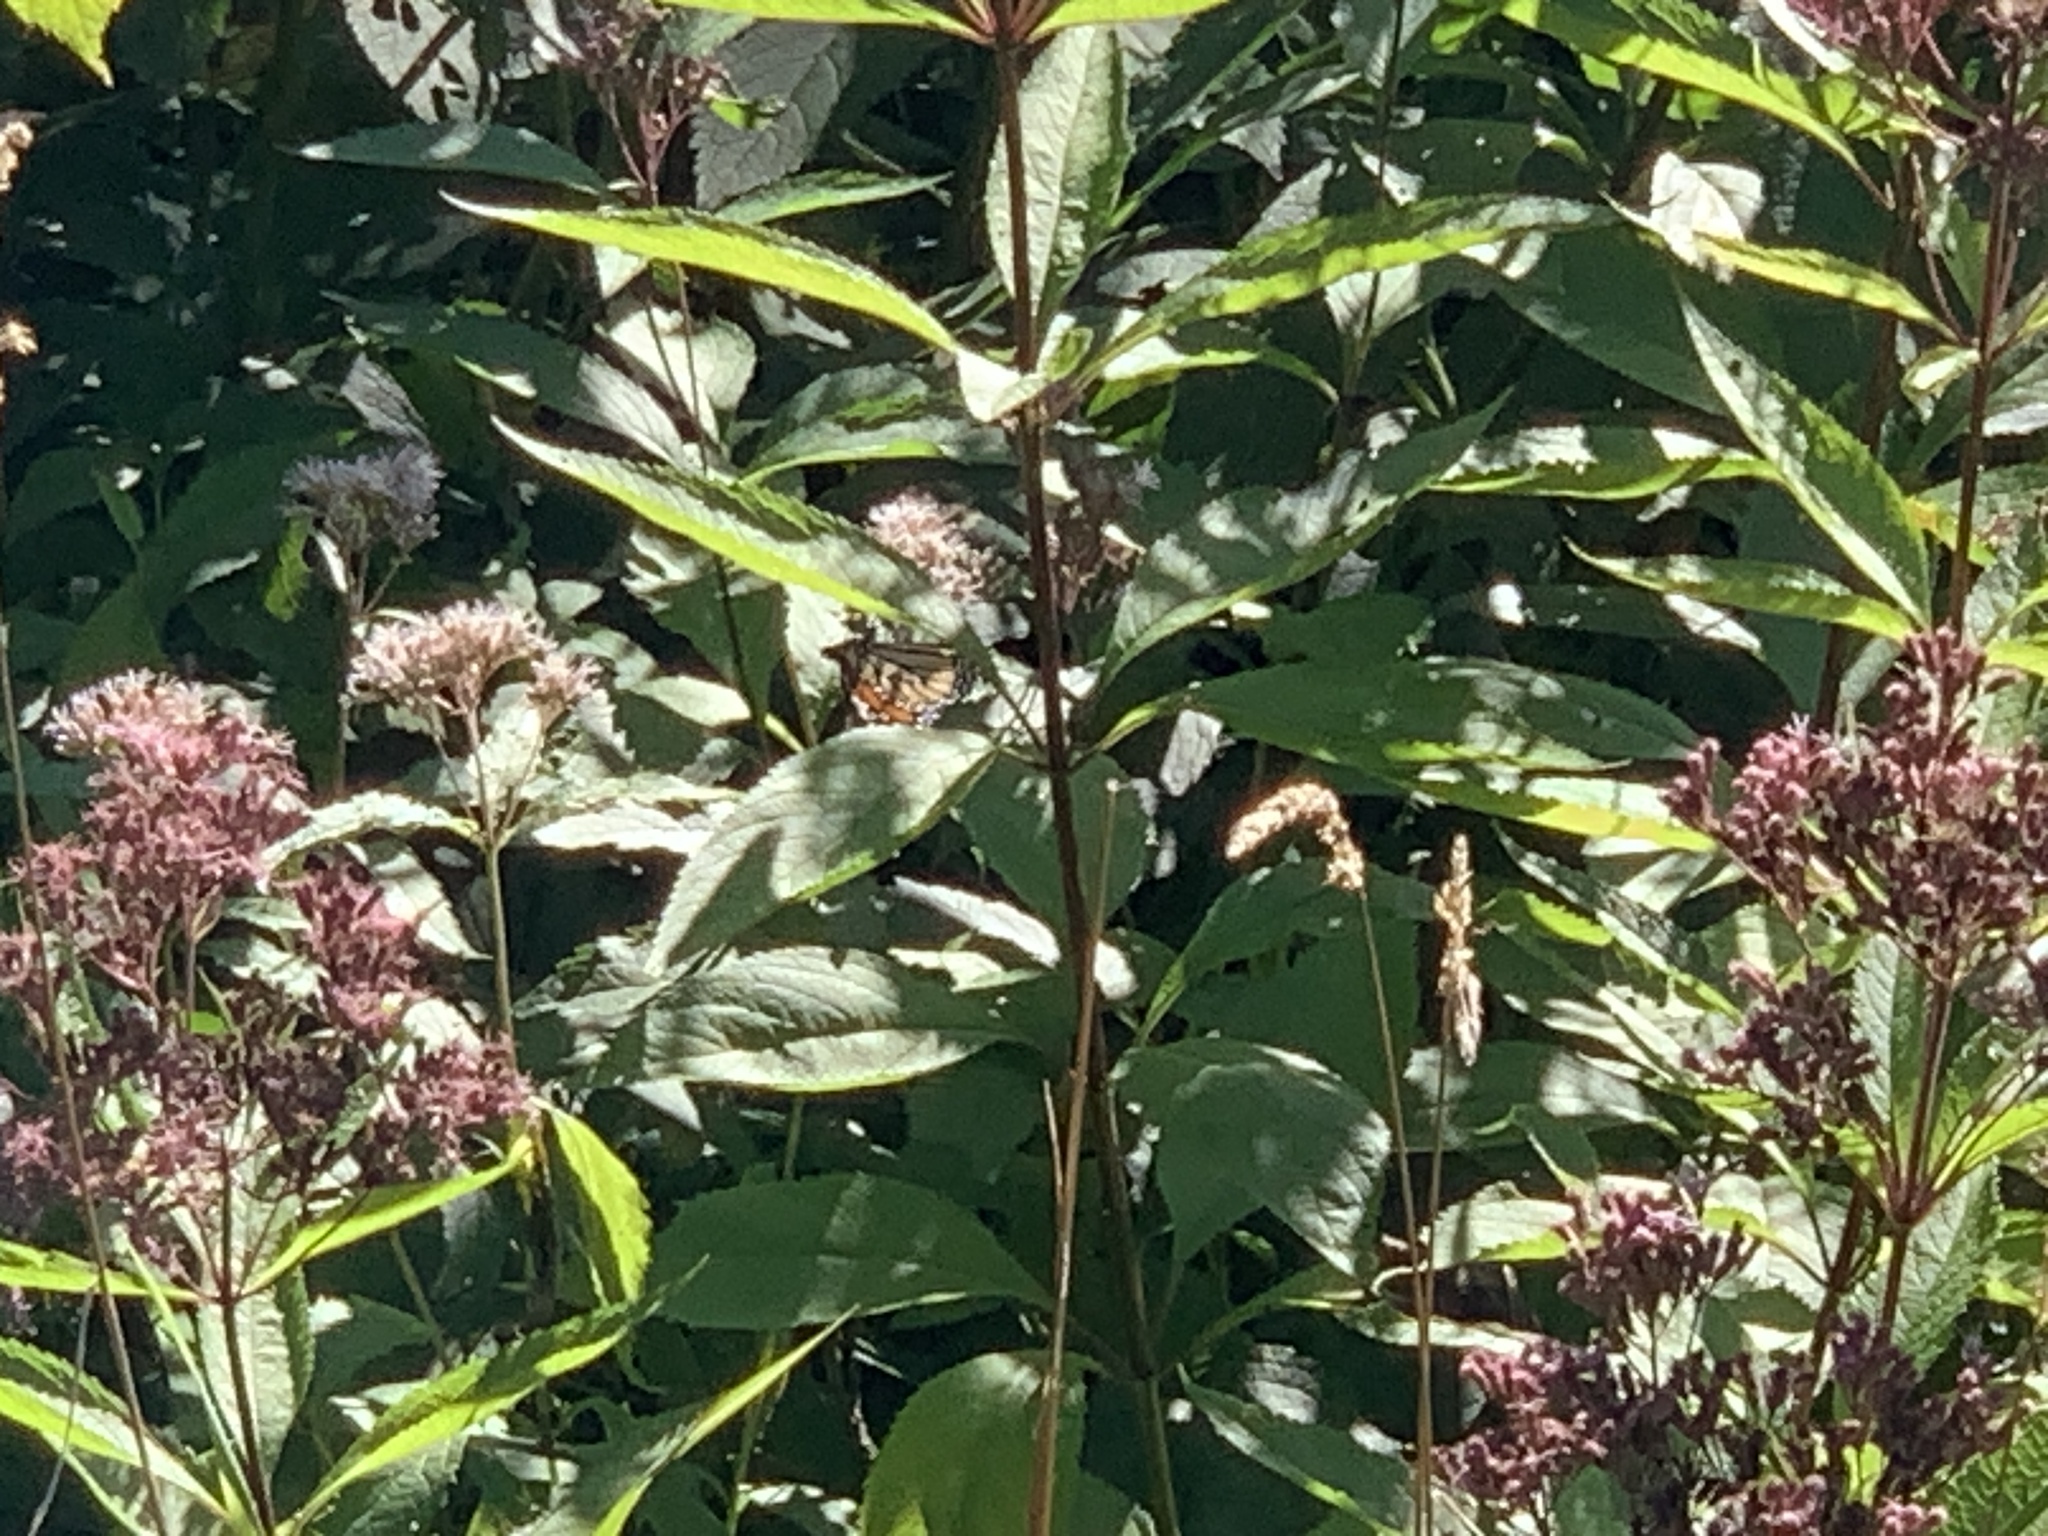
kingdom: Animalia
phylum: Arthropoda
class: Insecta
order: Lepidoptera
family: Nymphalidae
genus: Danaus
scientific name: Danaus plexippus
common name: Monarch
